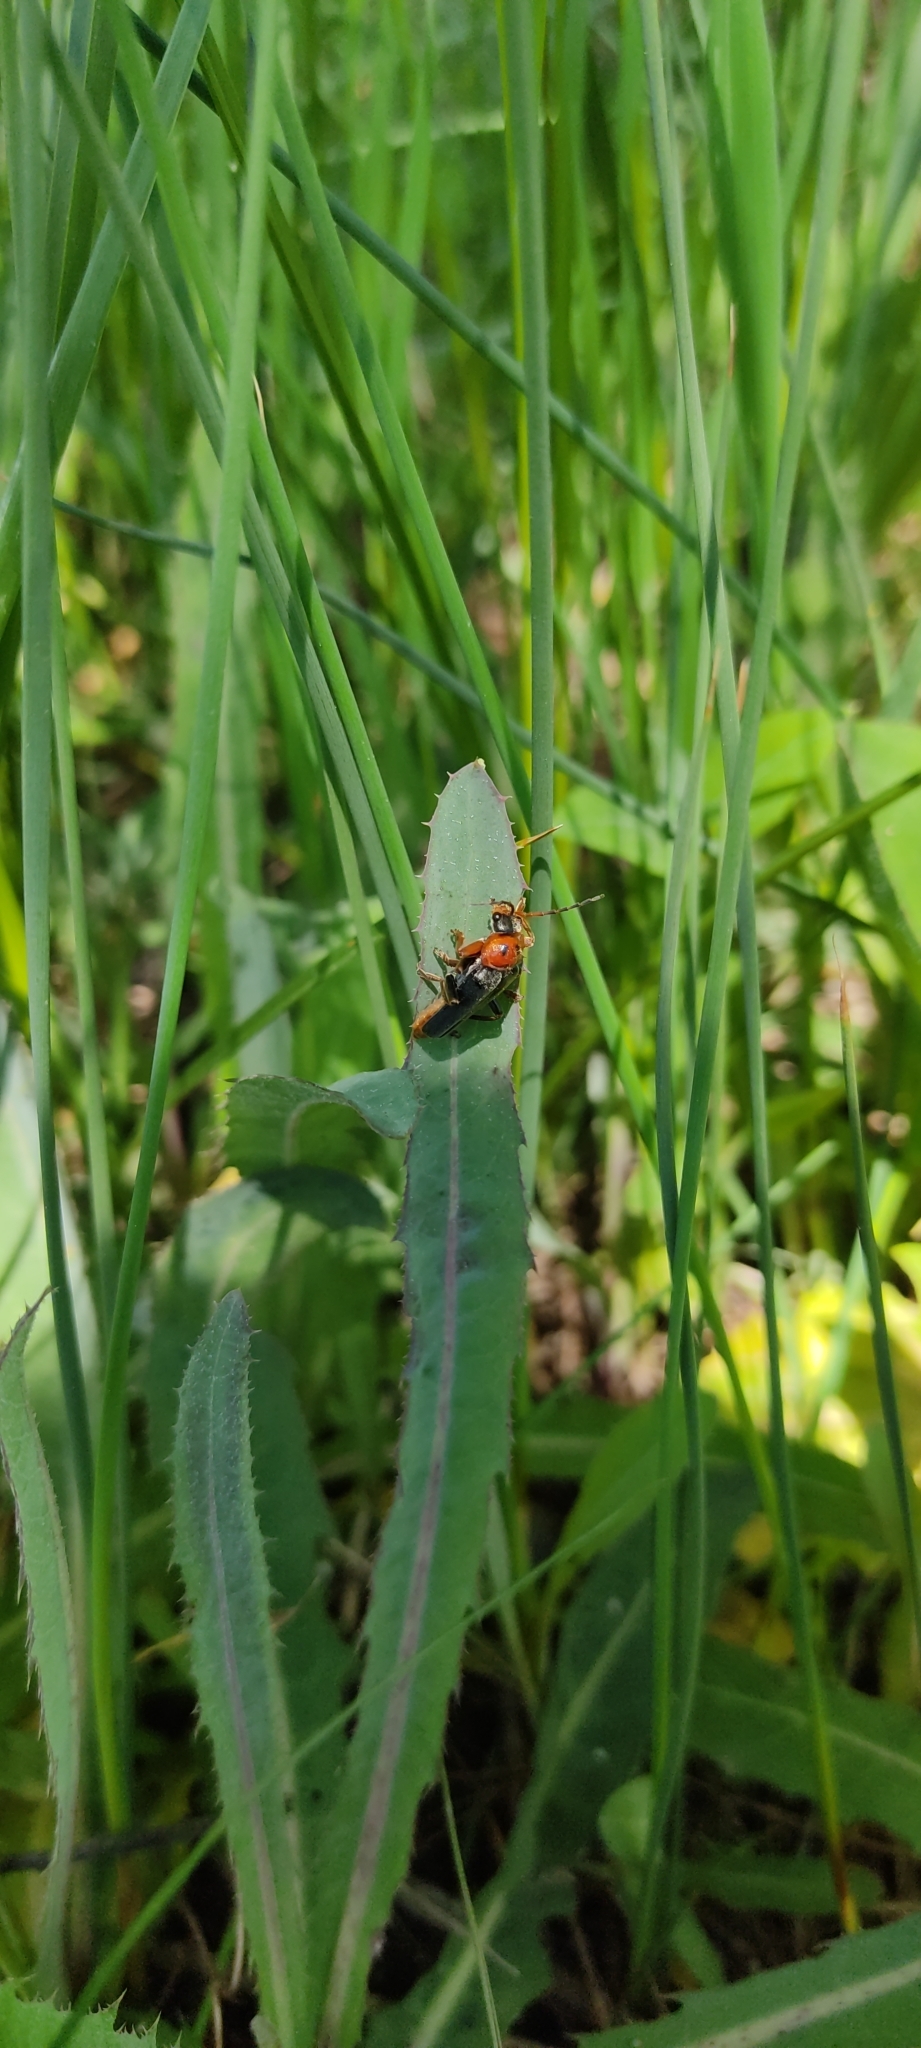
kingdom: Animalia
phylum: Arthropoda
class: Insecta
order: Coleoptera
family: Cantharidae
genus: Cantharis
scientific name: Cantharis rustica
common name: Soldier beetle
